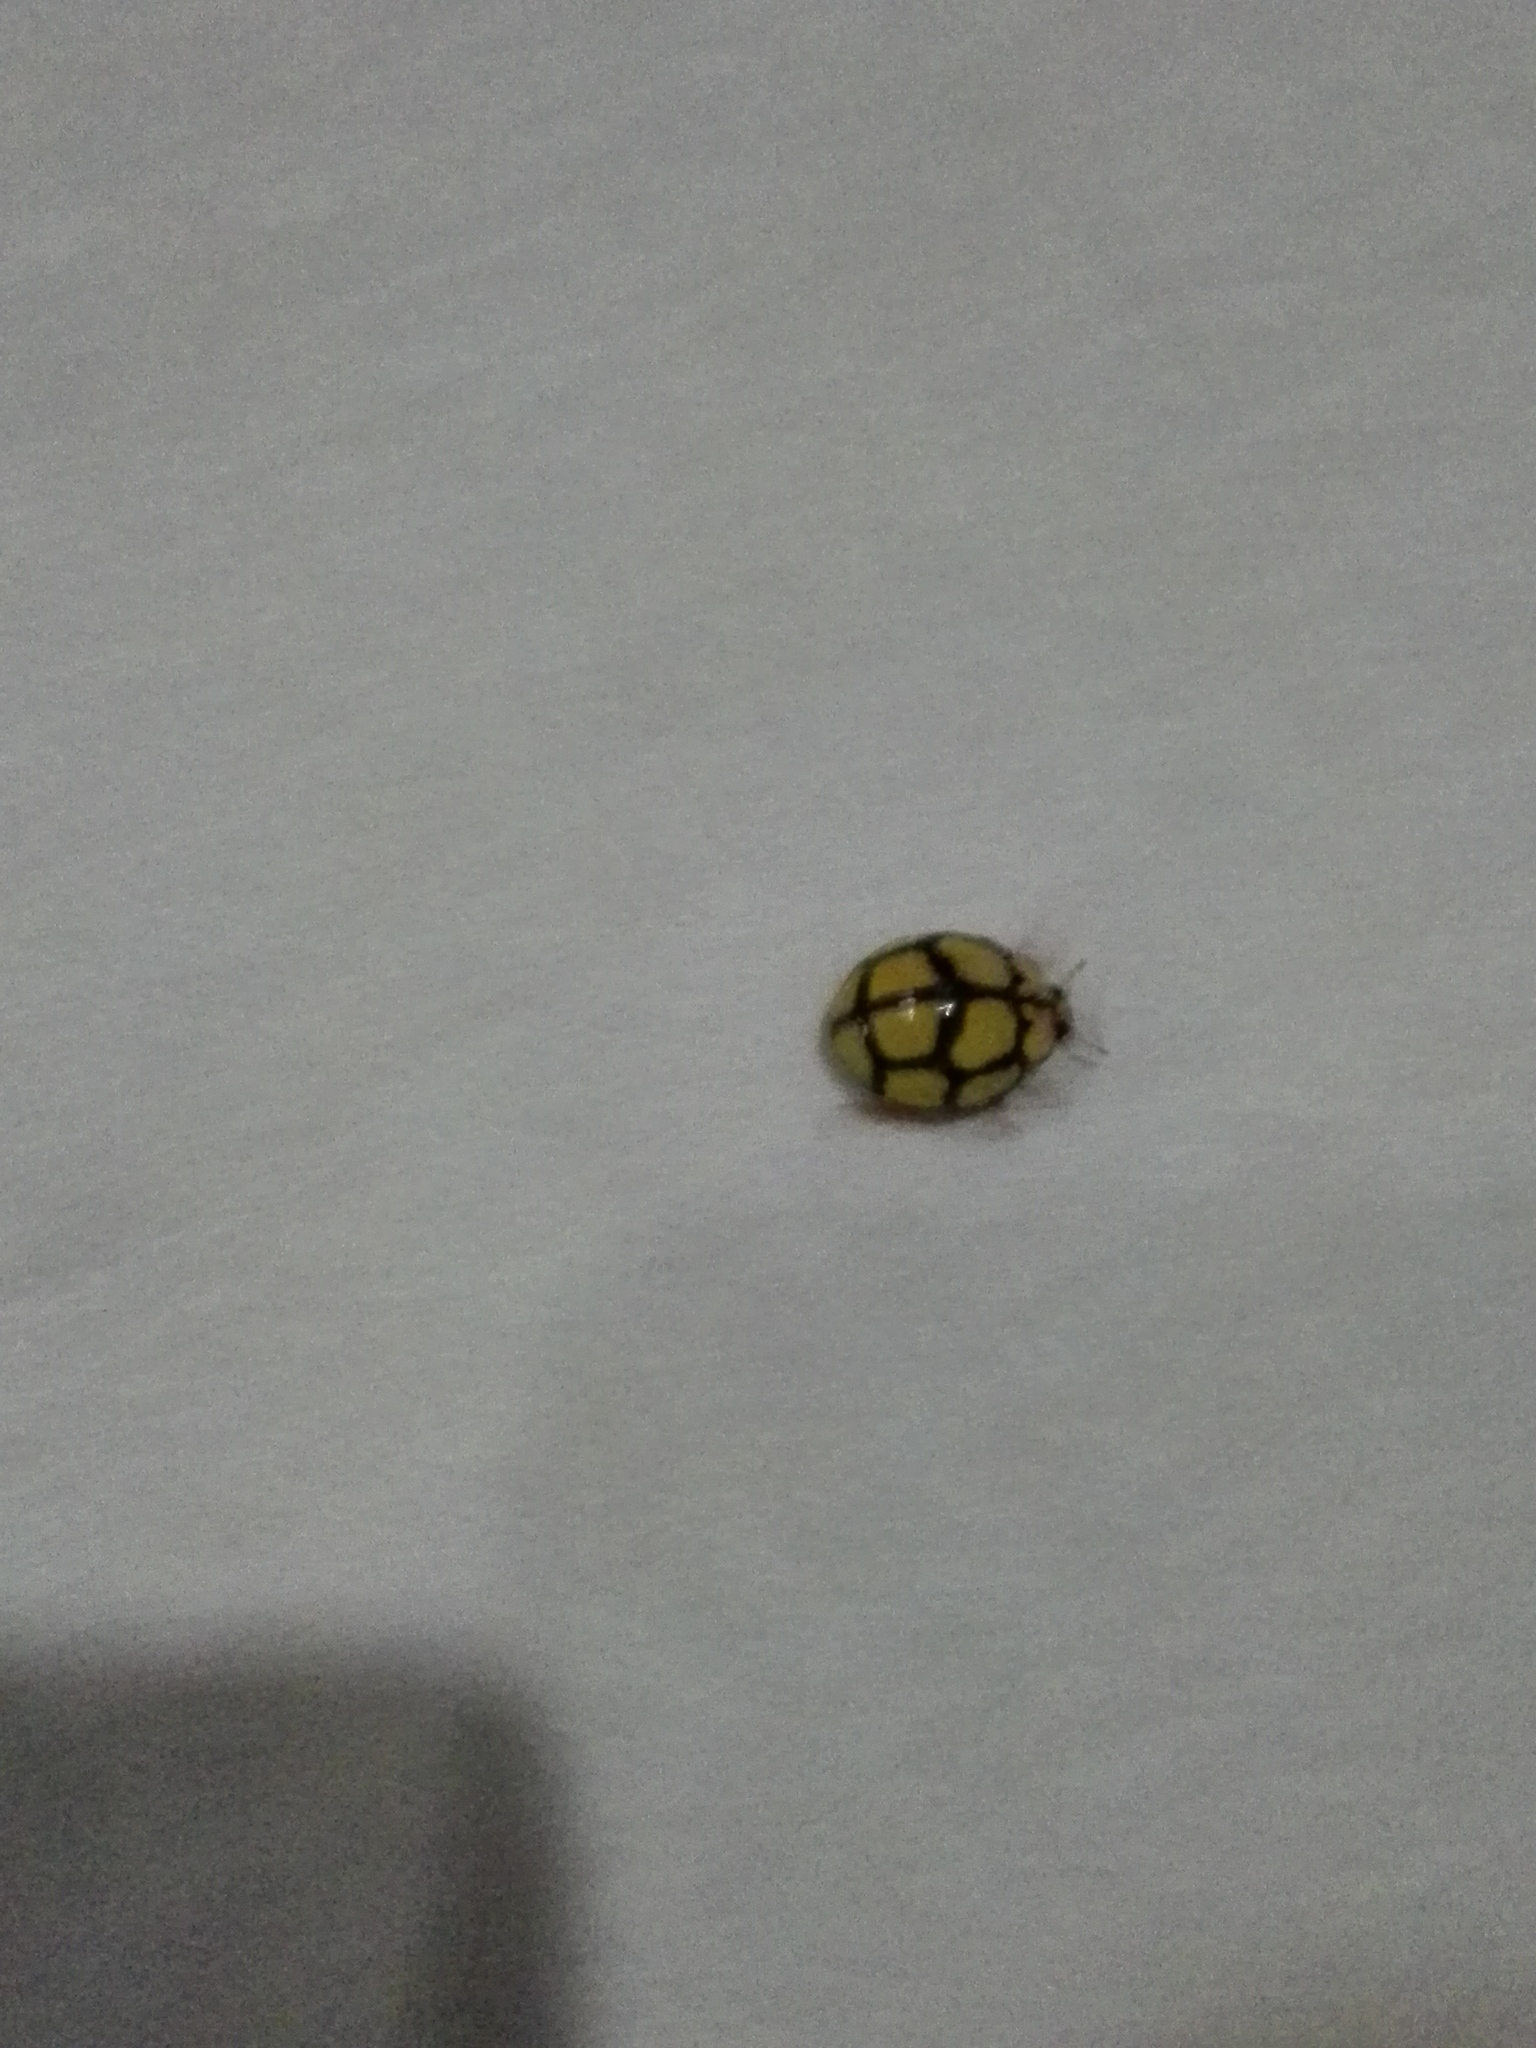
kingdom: Animalia
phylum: Arthropoda
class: Insecta
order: Coleoptera
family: Coccinellidae
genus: Heteroneda
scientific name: Heteroneda
